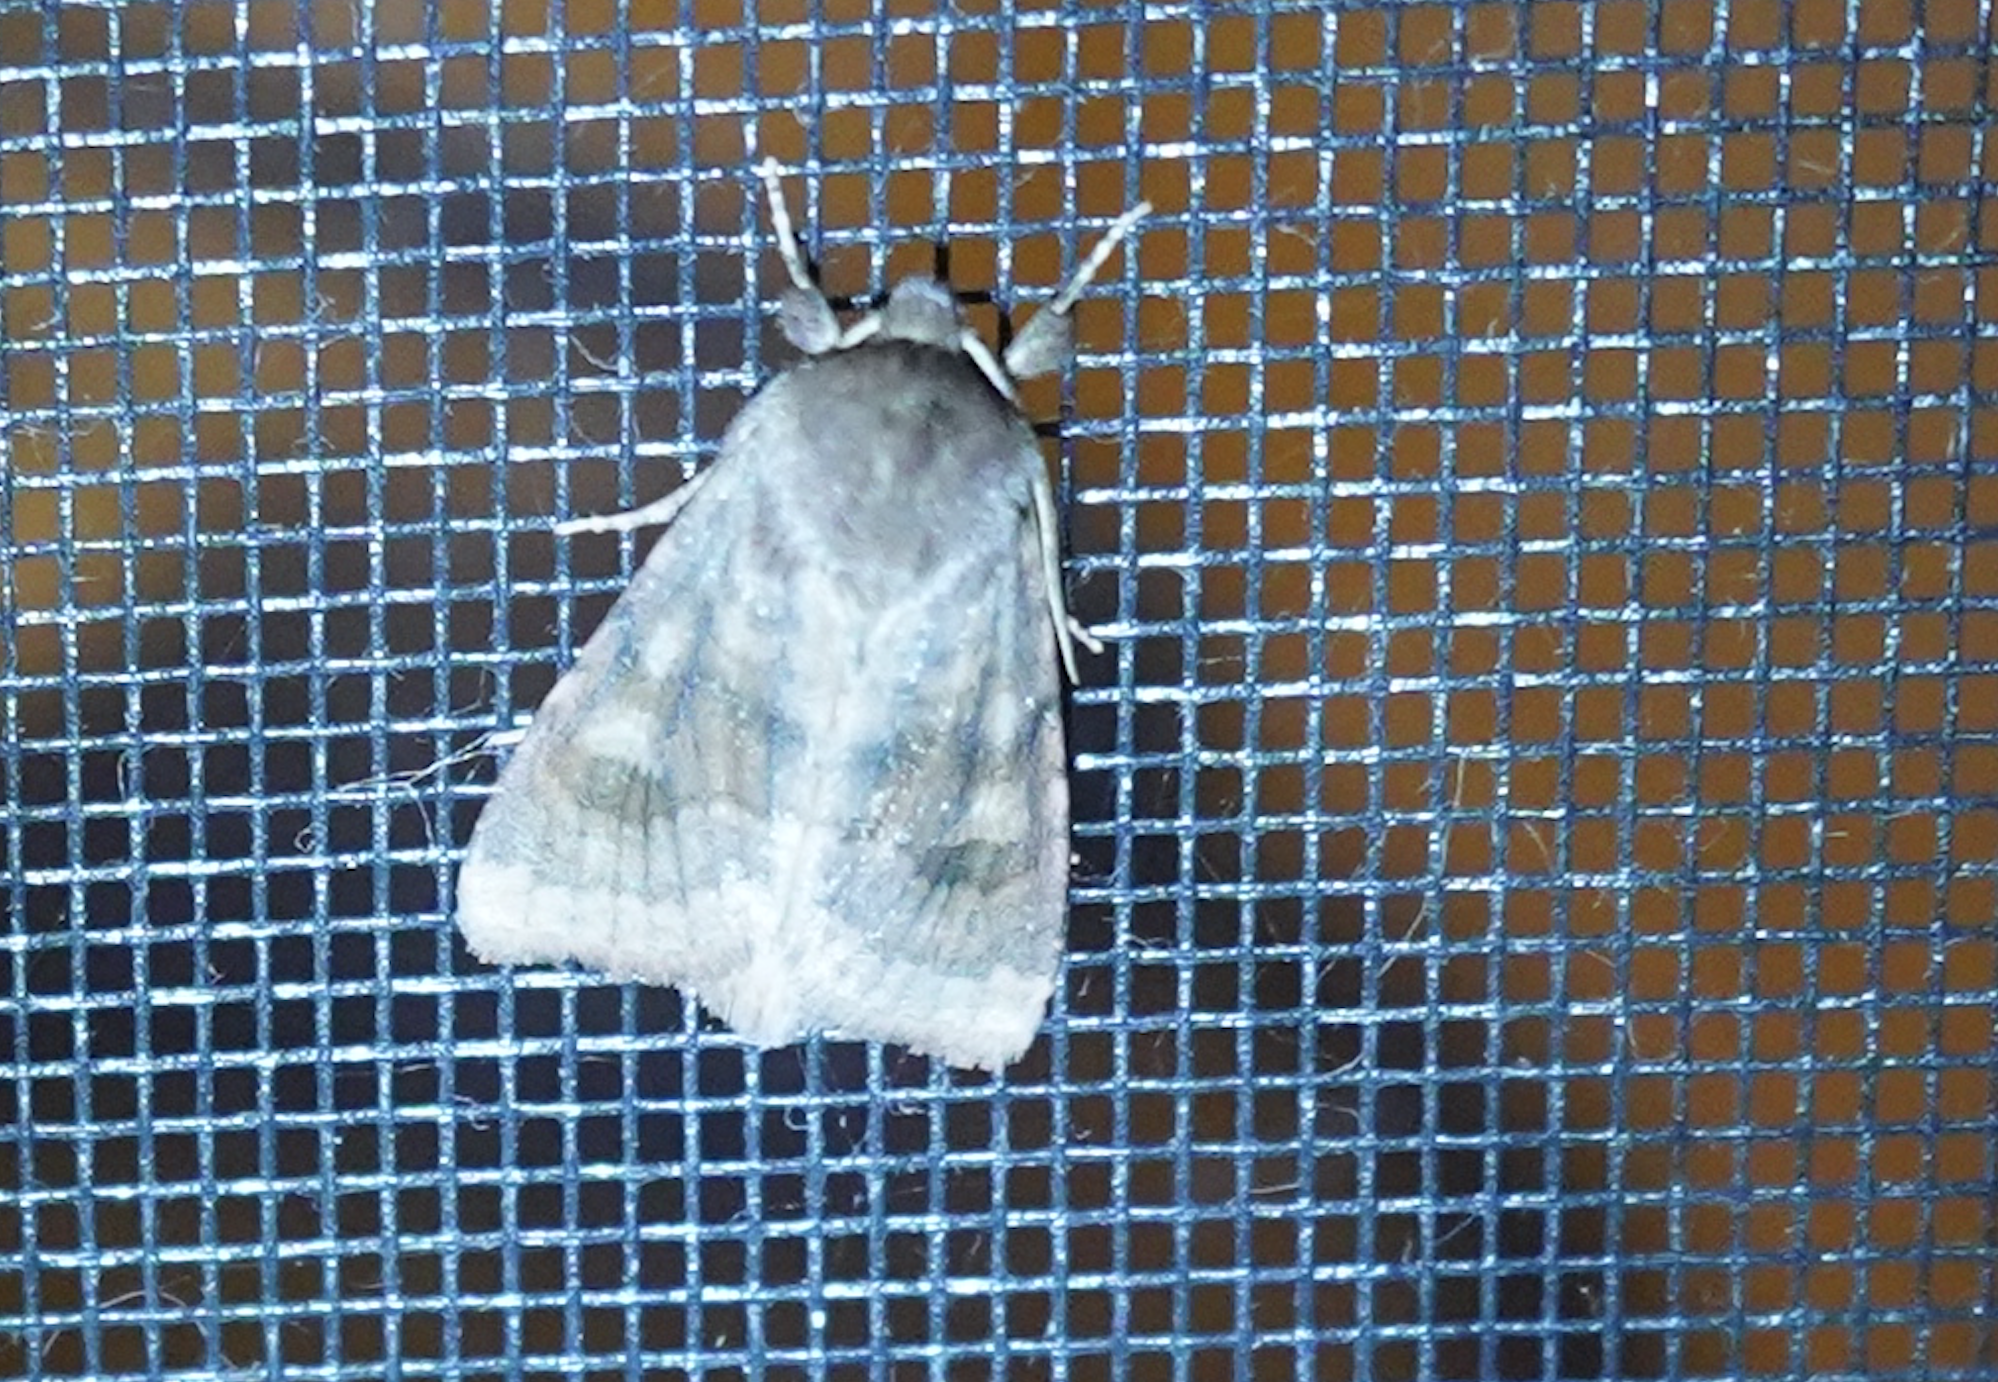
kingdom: Animalia
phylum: Arthropoda
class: Insecta
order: Lepidoptera
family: Noctuidae
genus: Nephelodes
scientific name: Nephelodes minians
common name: Bronzed cutworm
